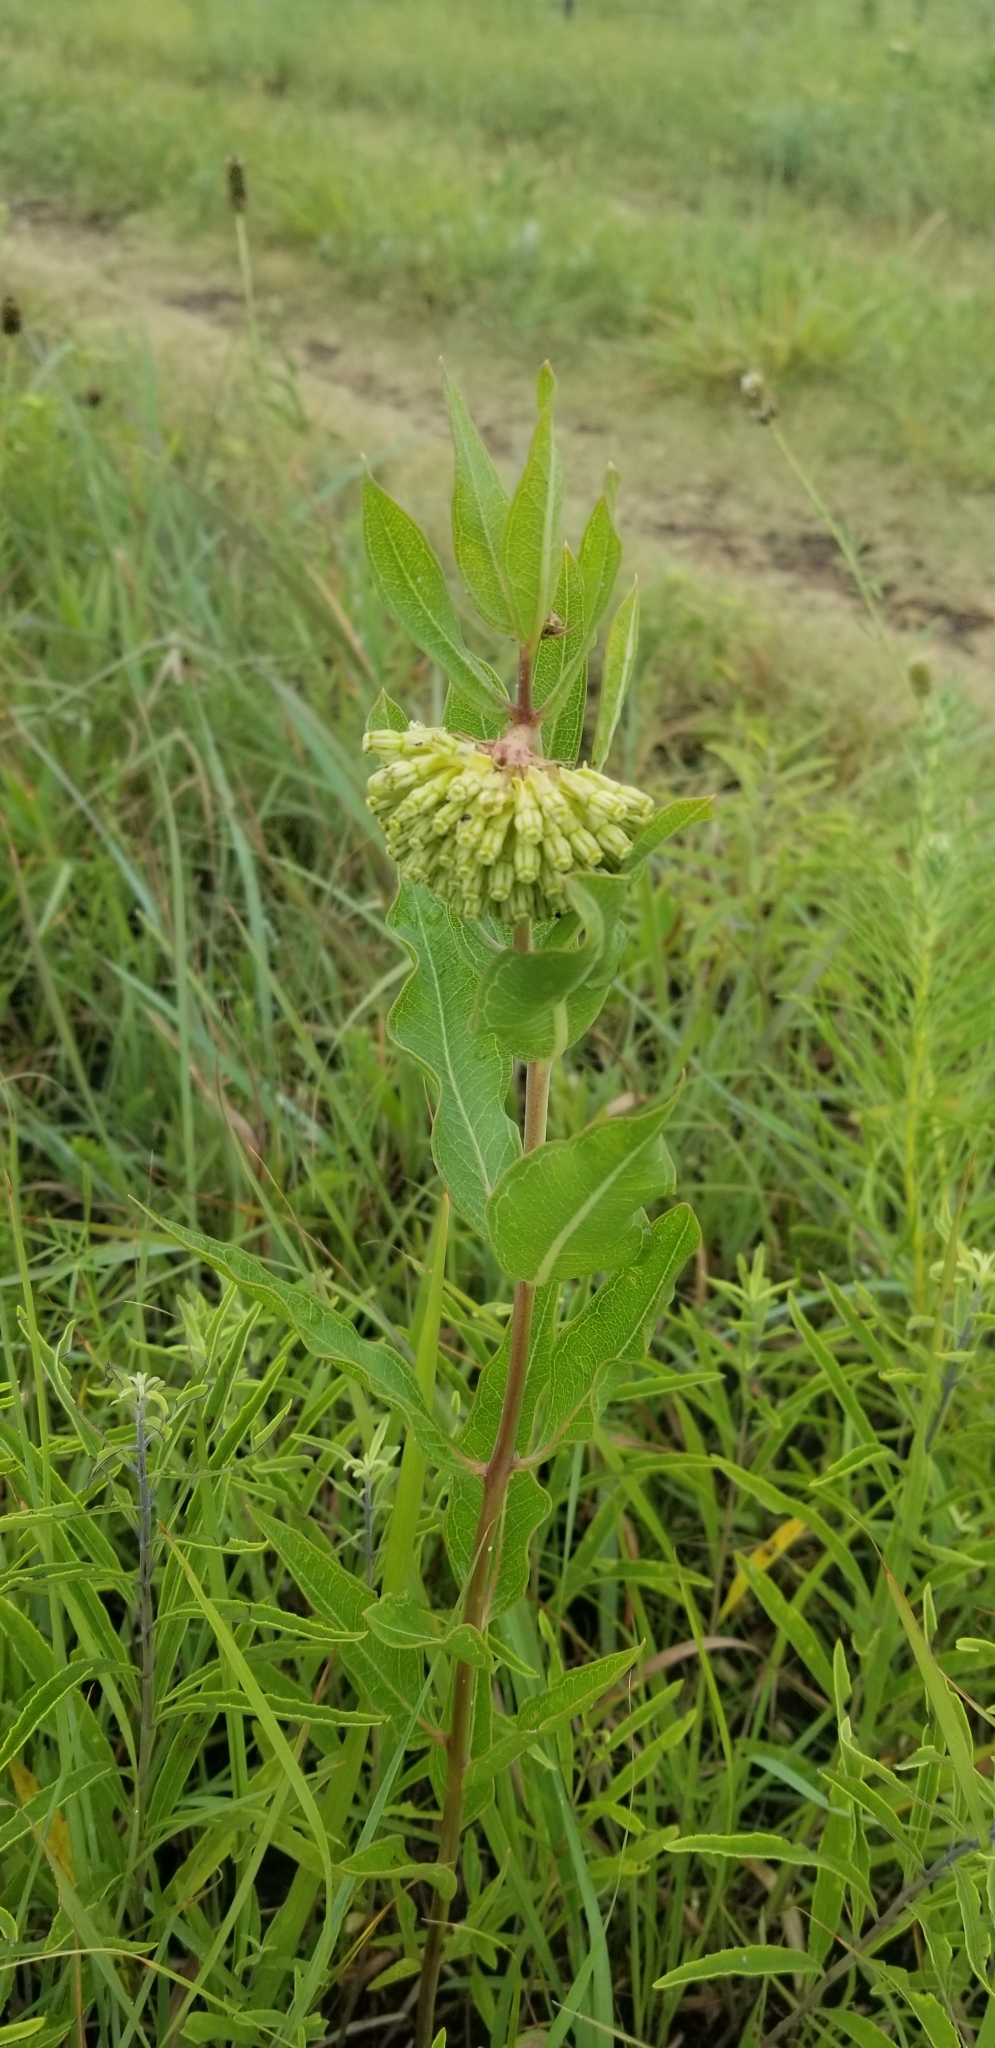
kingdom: Plantae
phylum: Tracheophyta
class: Magnoliopsida
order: Gentianales
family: Apocynaceae
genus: Asclepias
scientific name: Asclepias viridiflora
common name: Green comet milkweed
